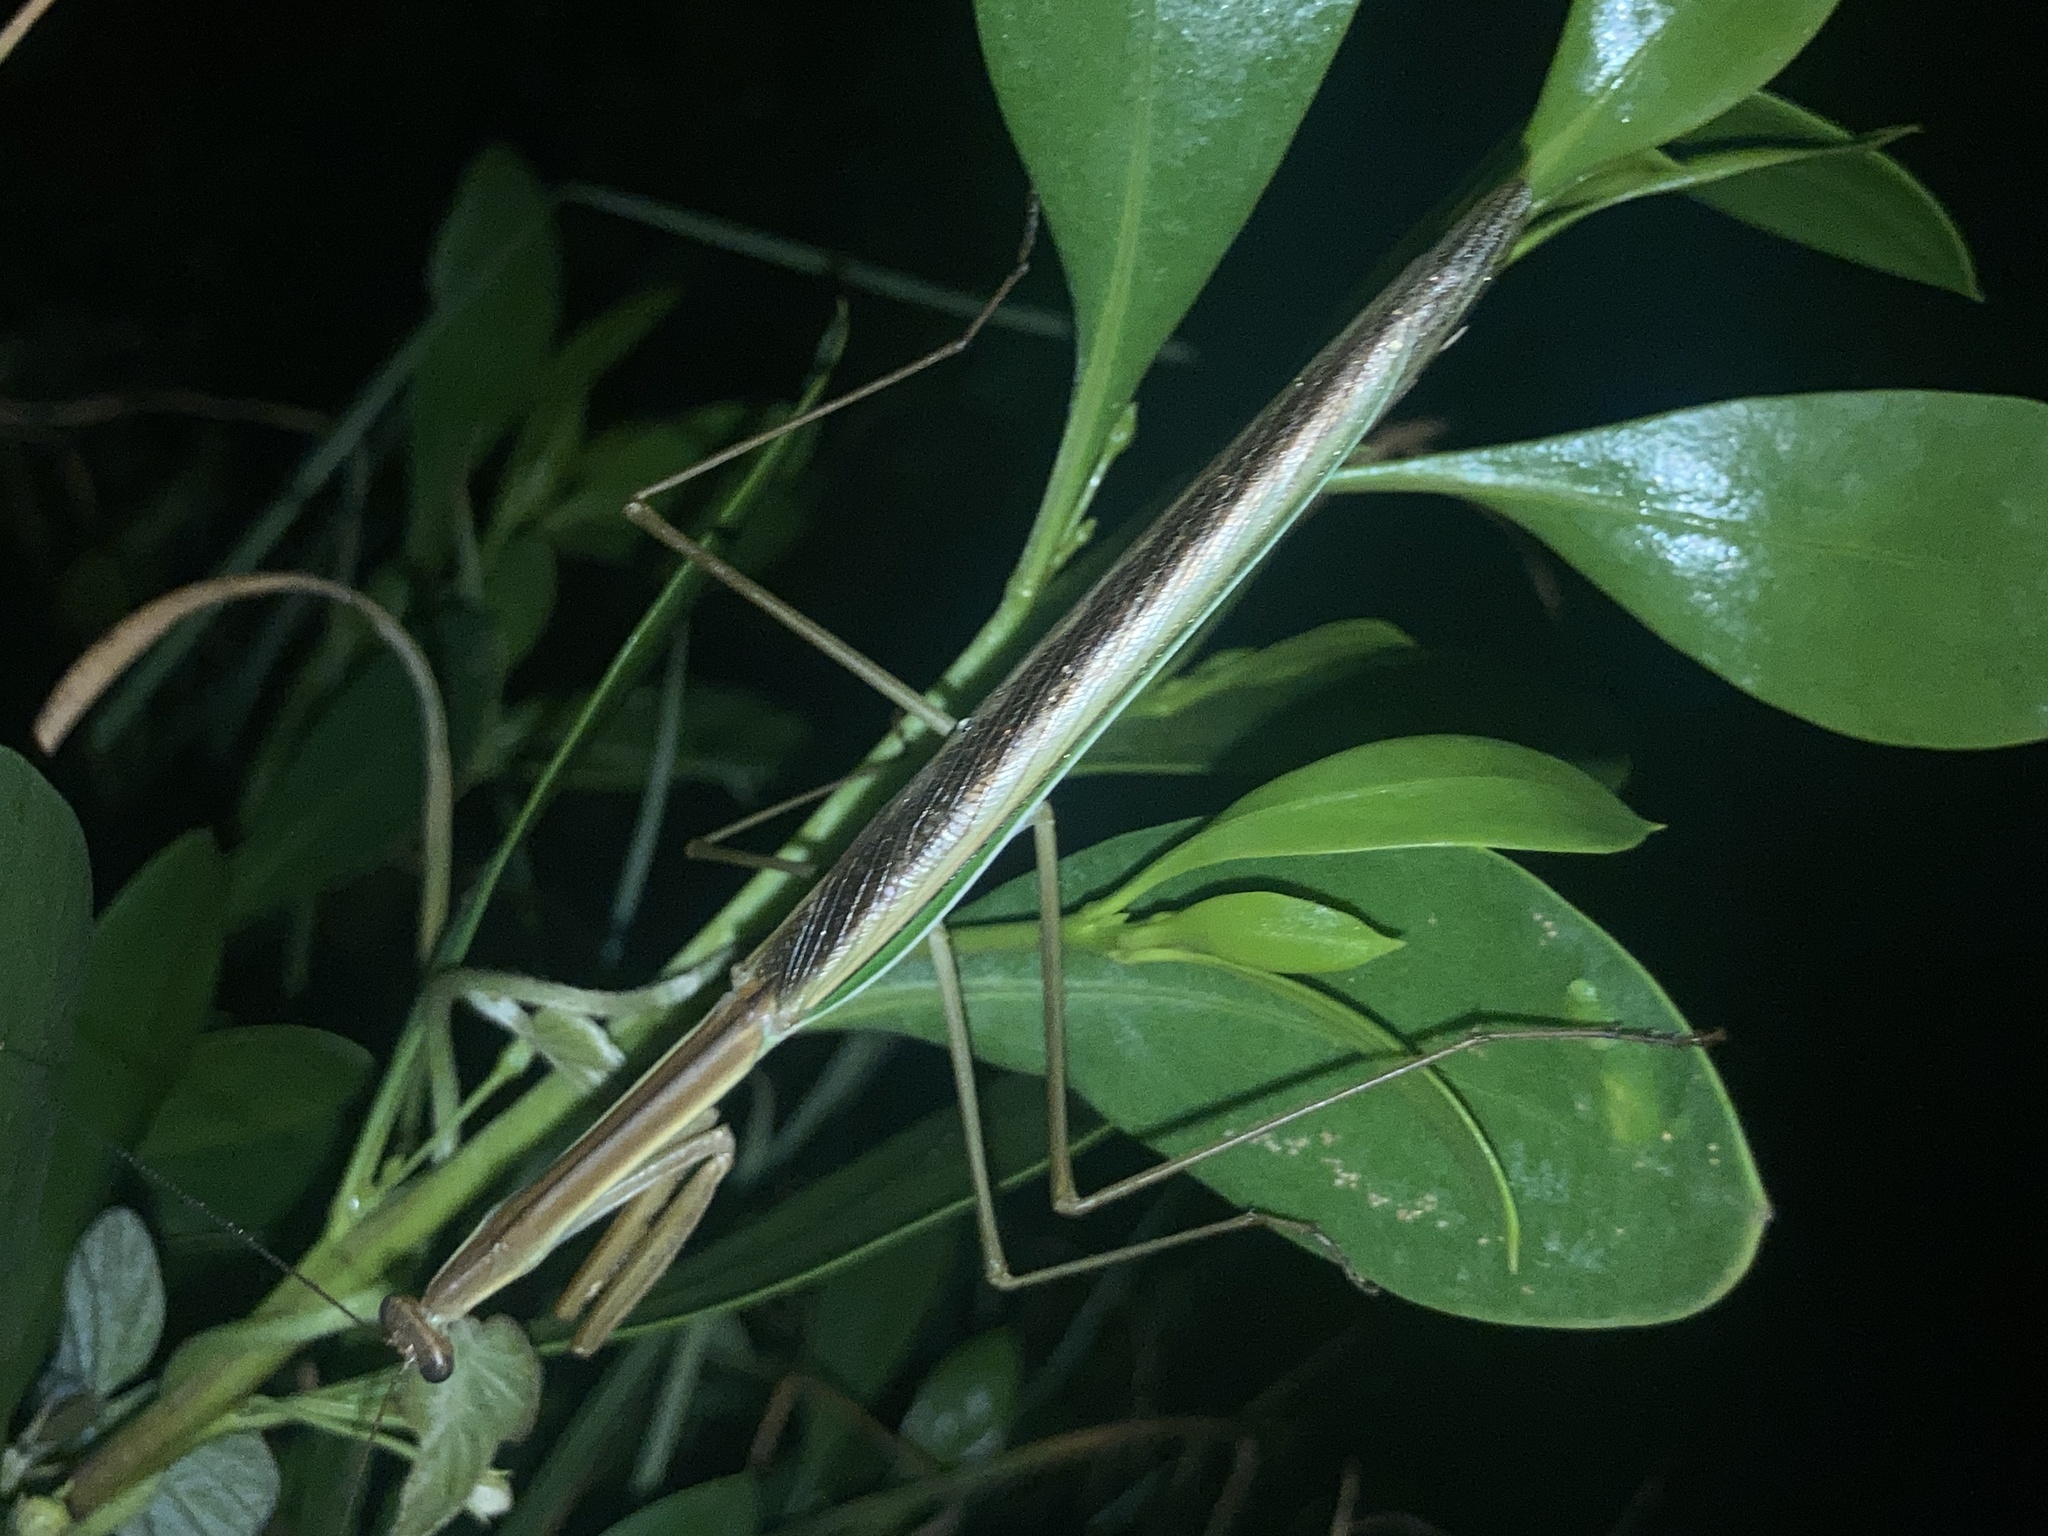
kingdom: Animalia
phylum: Arthropoda
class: Insecta
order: Mantodea
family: Mantidae
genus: Tenodera
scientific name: Tenodera australasiae
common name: Purple-winged mantis
